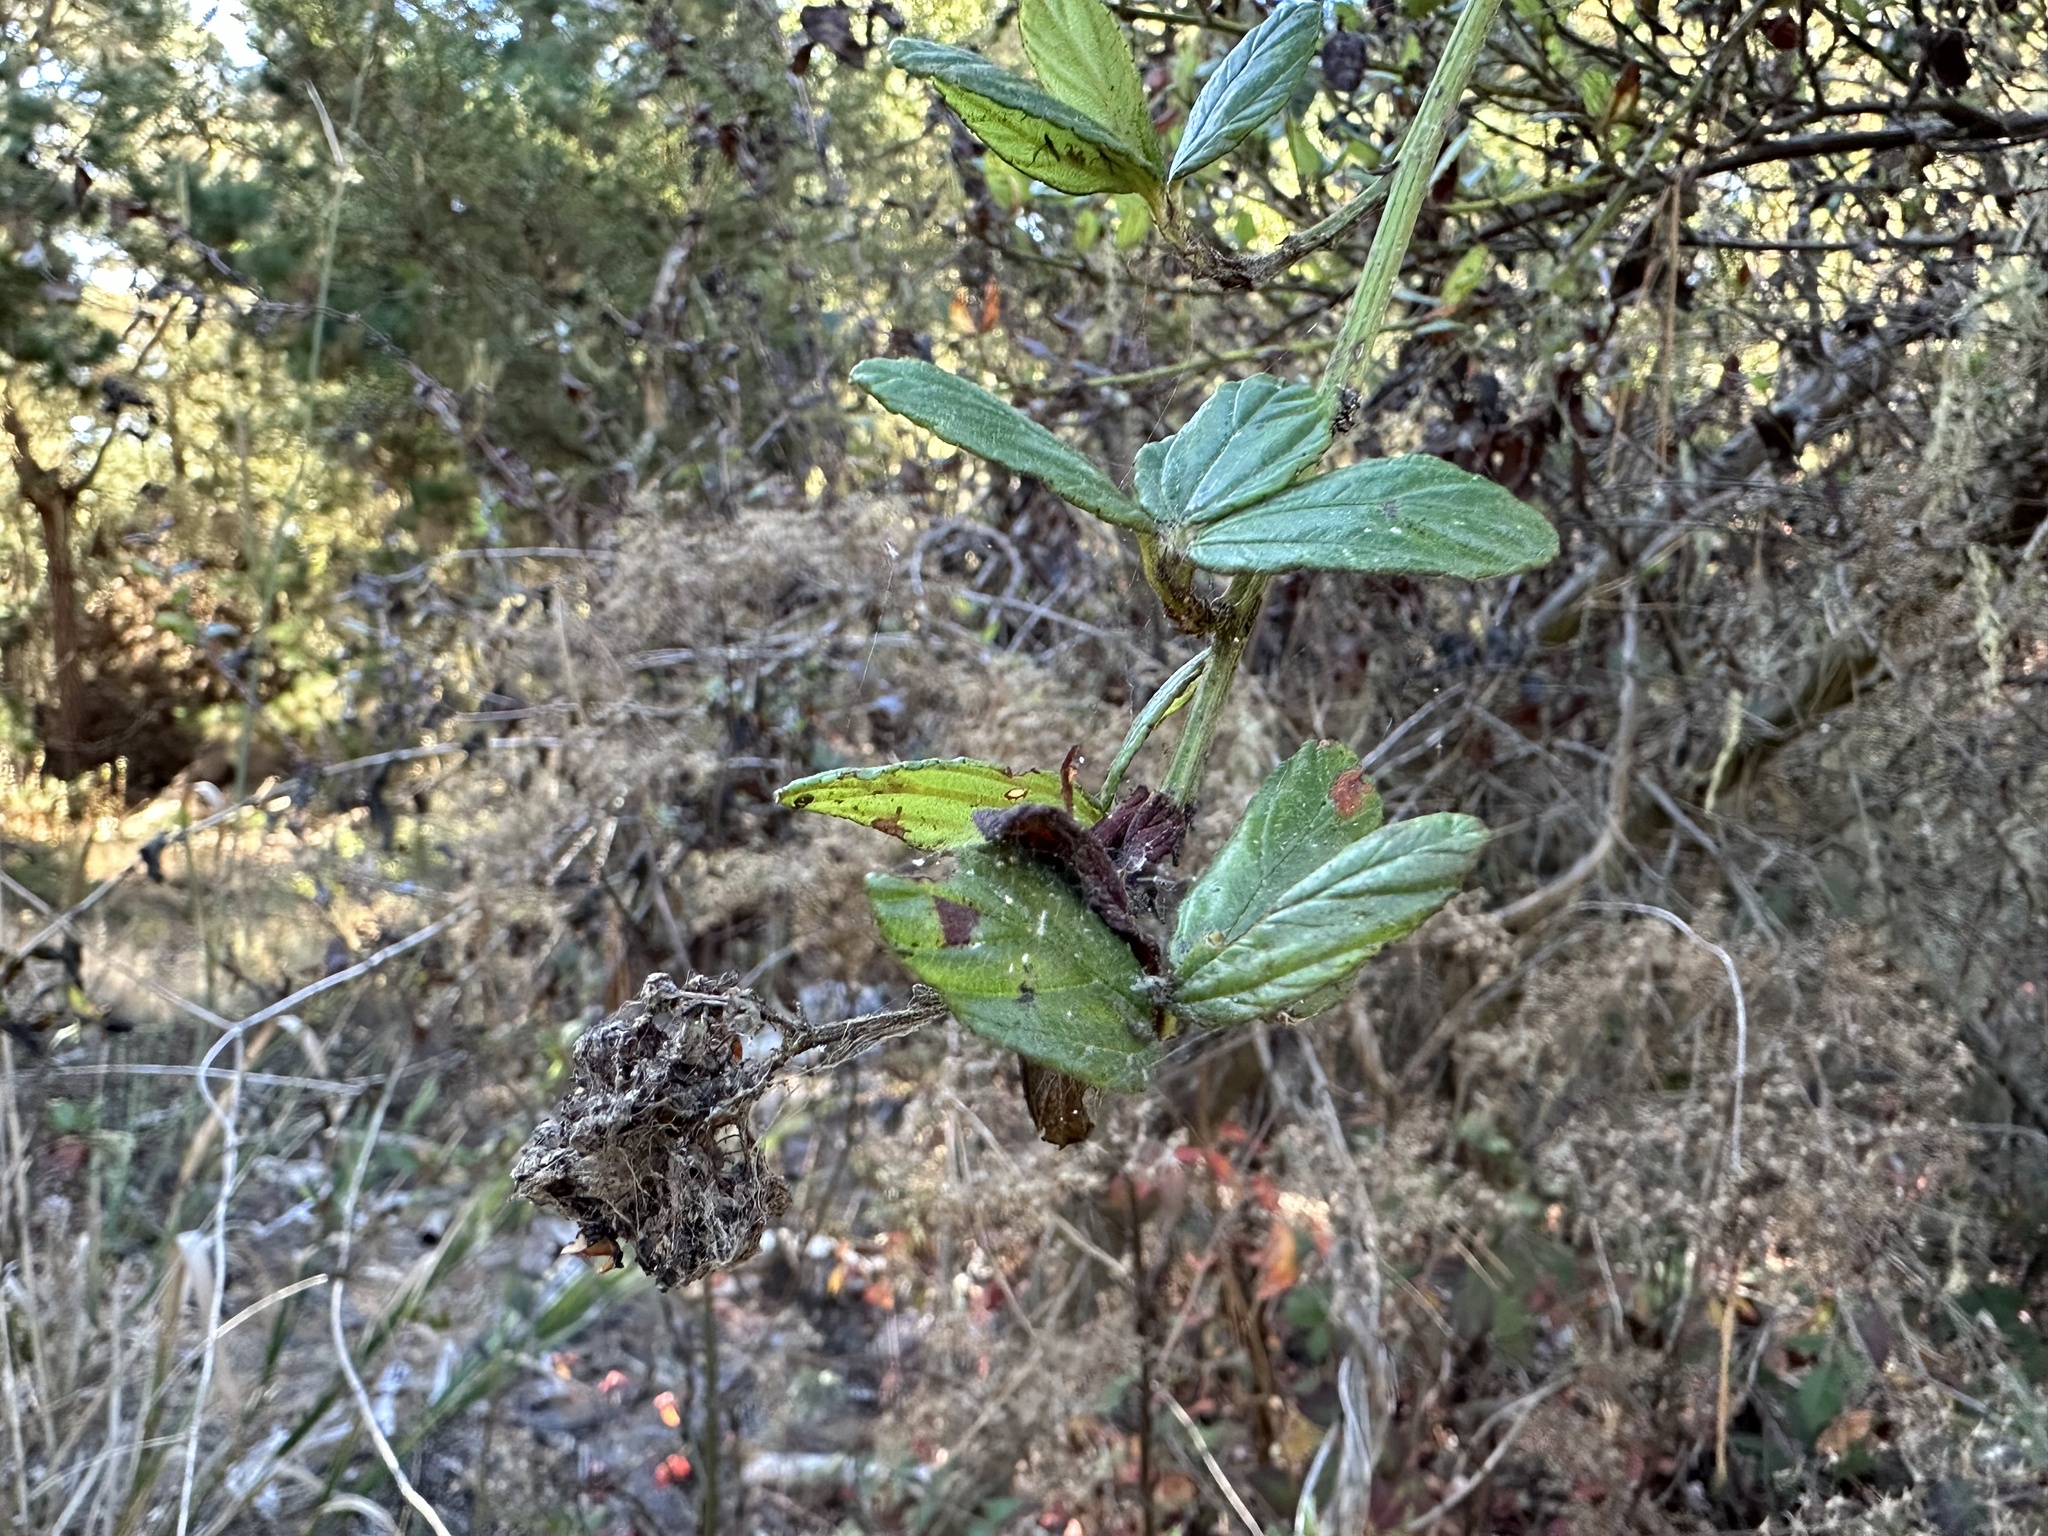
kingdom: Plantae
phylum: Tracheophyta
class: Magnoliopsida
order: Rosales
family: Rhamnaceae
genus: Ceanothus
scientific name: Ceanothus thyrsiflorus
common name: California-lilac
